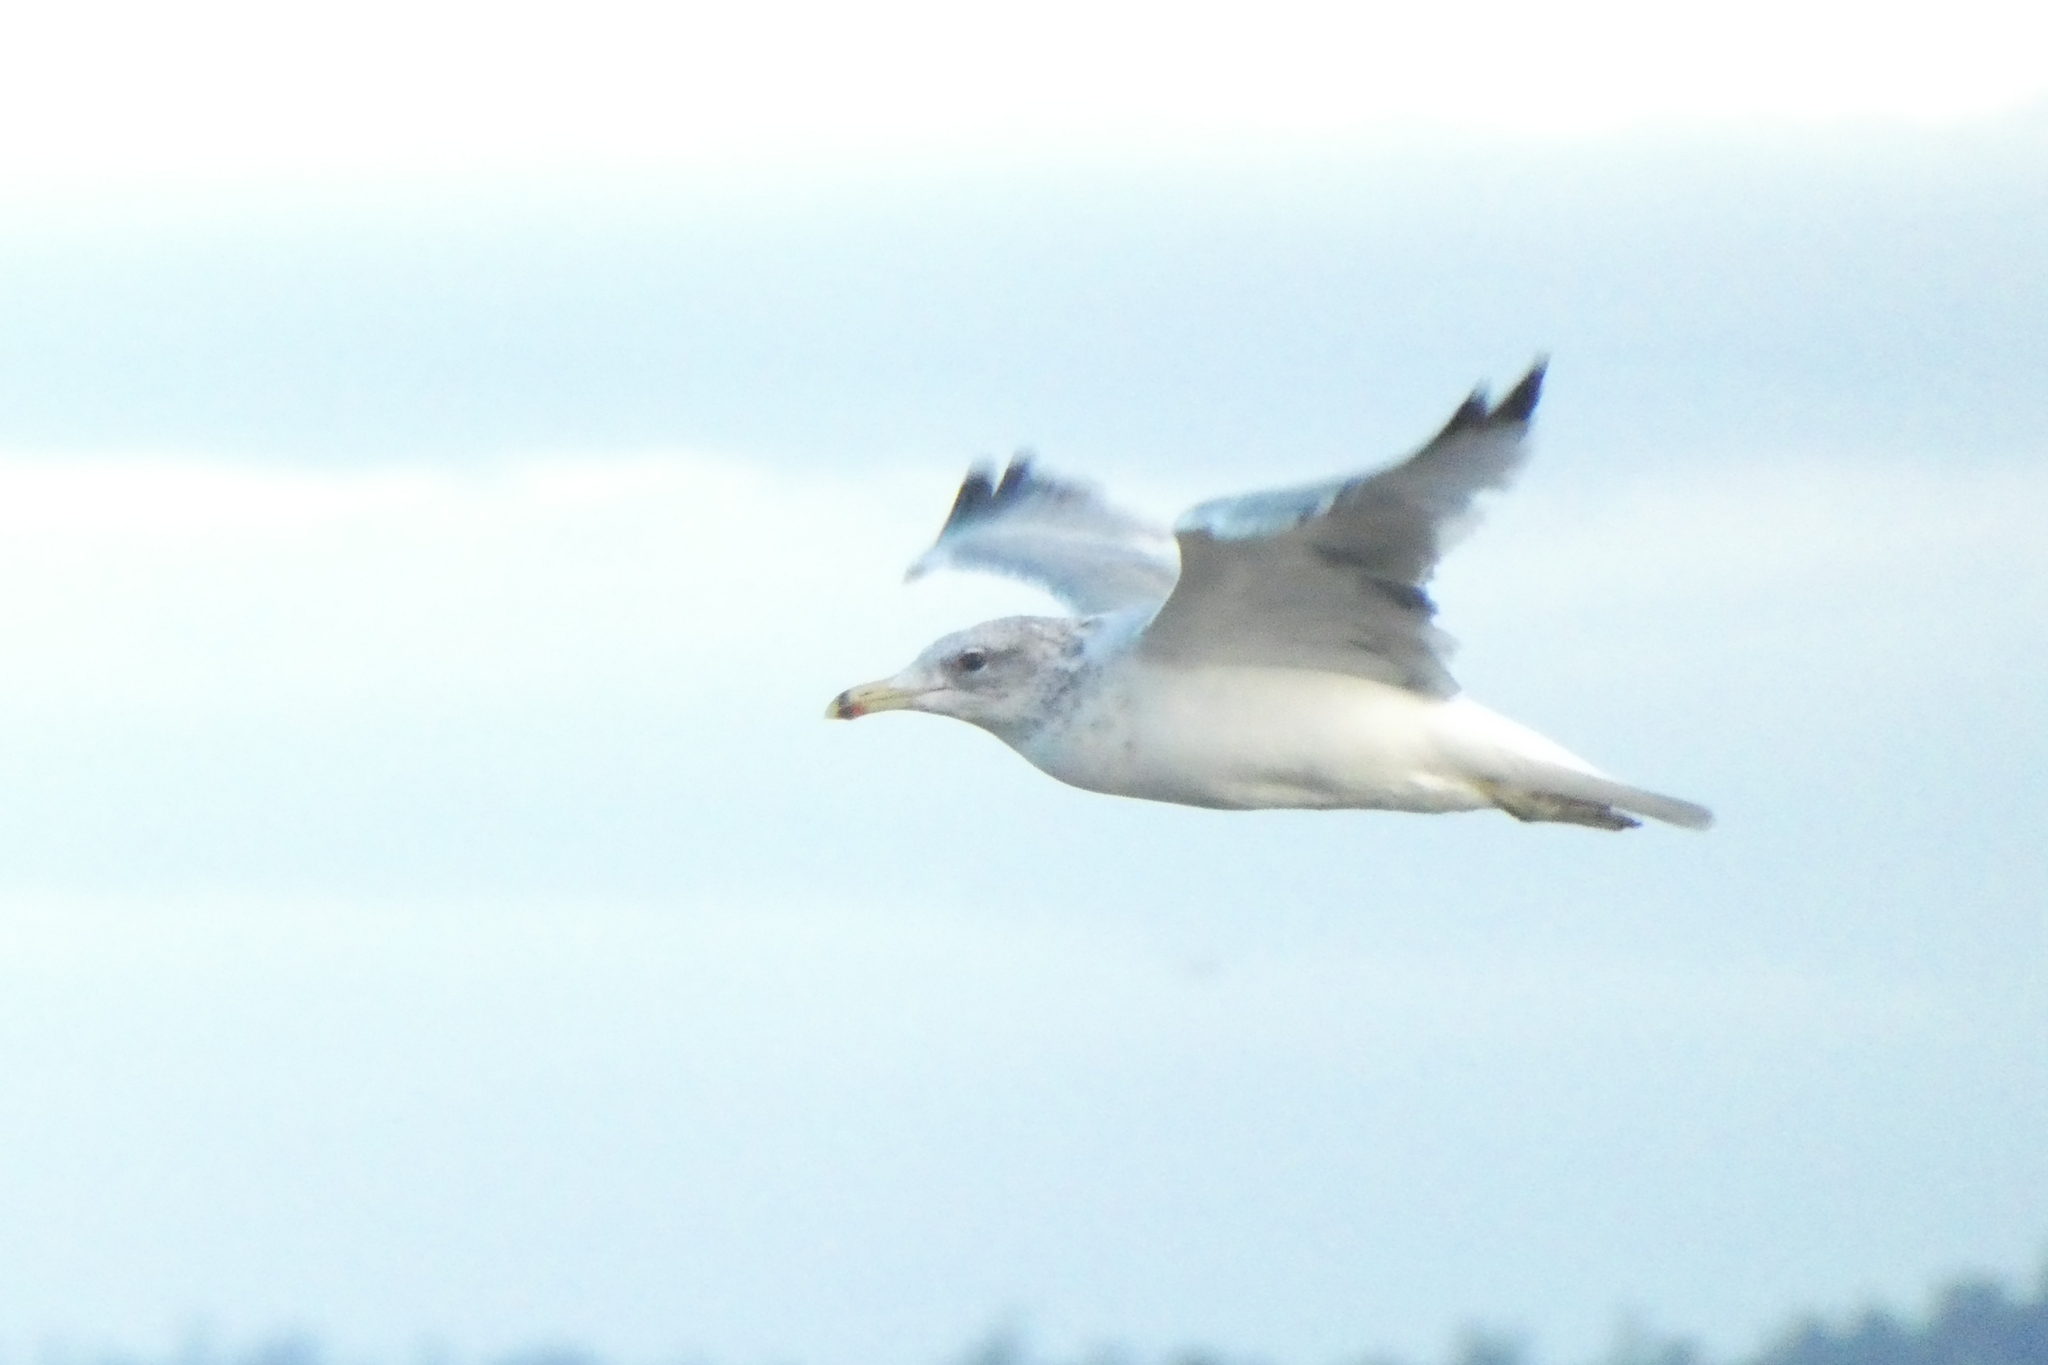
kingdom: Animalia
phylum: Chordata
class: Aves
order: Charadriiformes
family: Laridae
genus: Larus
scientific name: Larus californicus
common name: California gull
